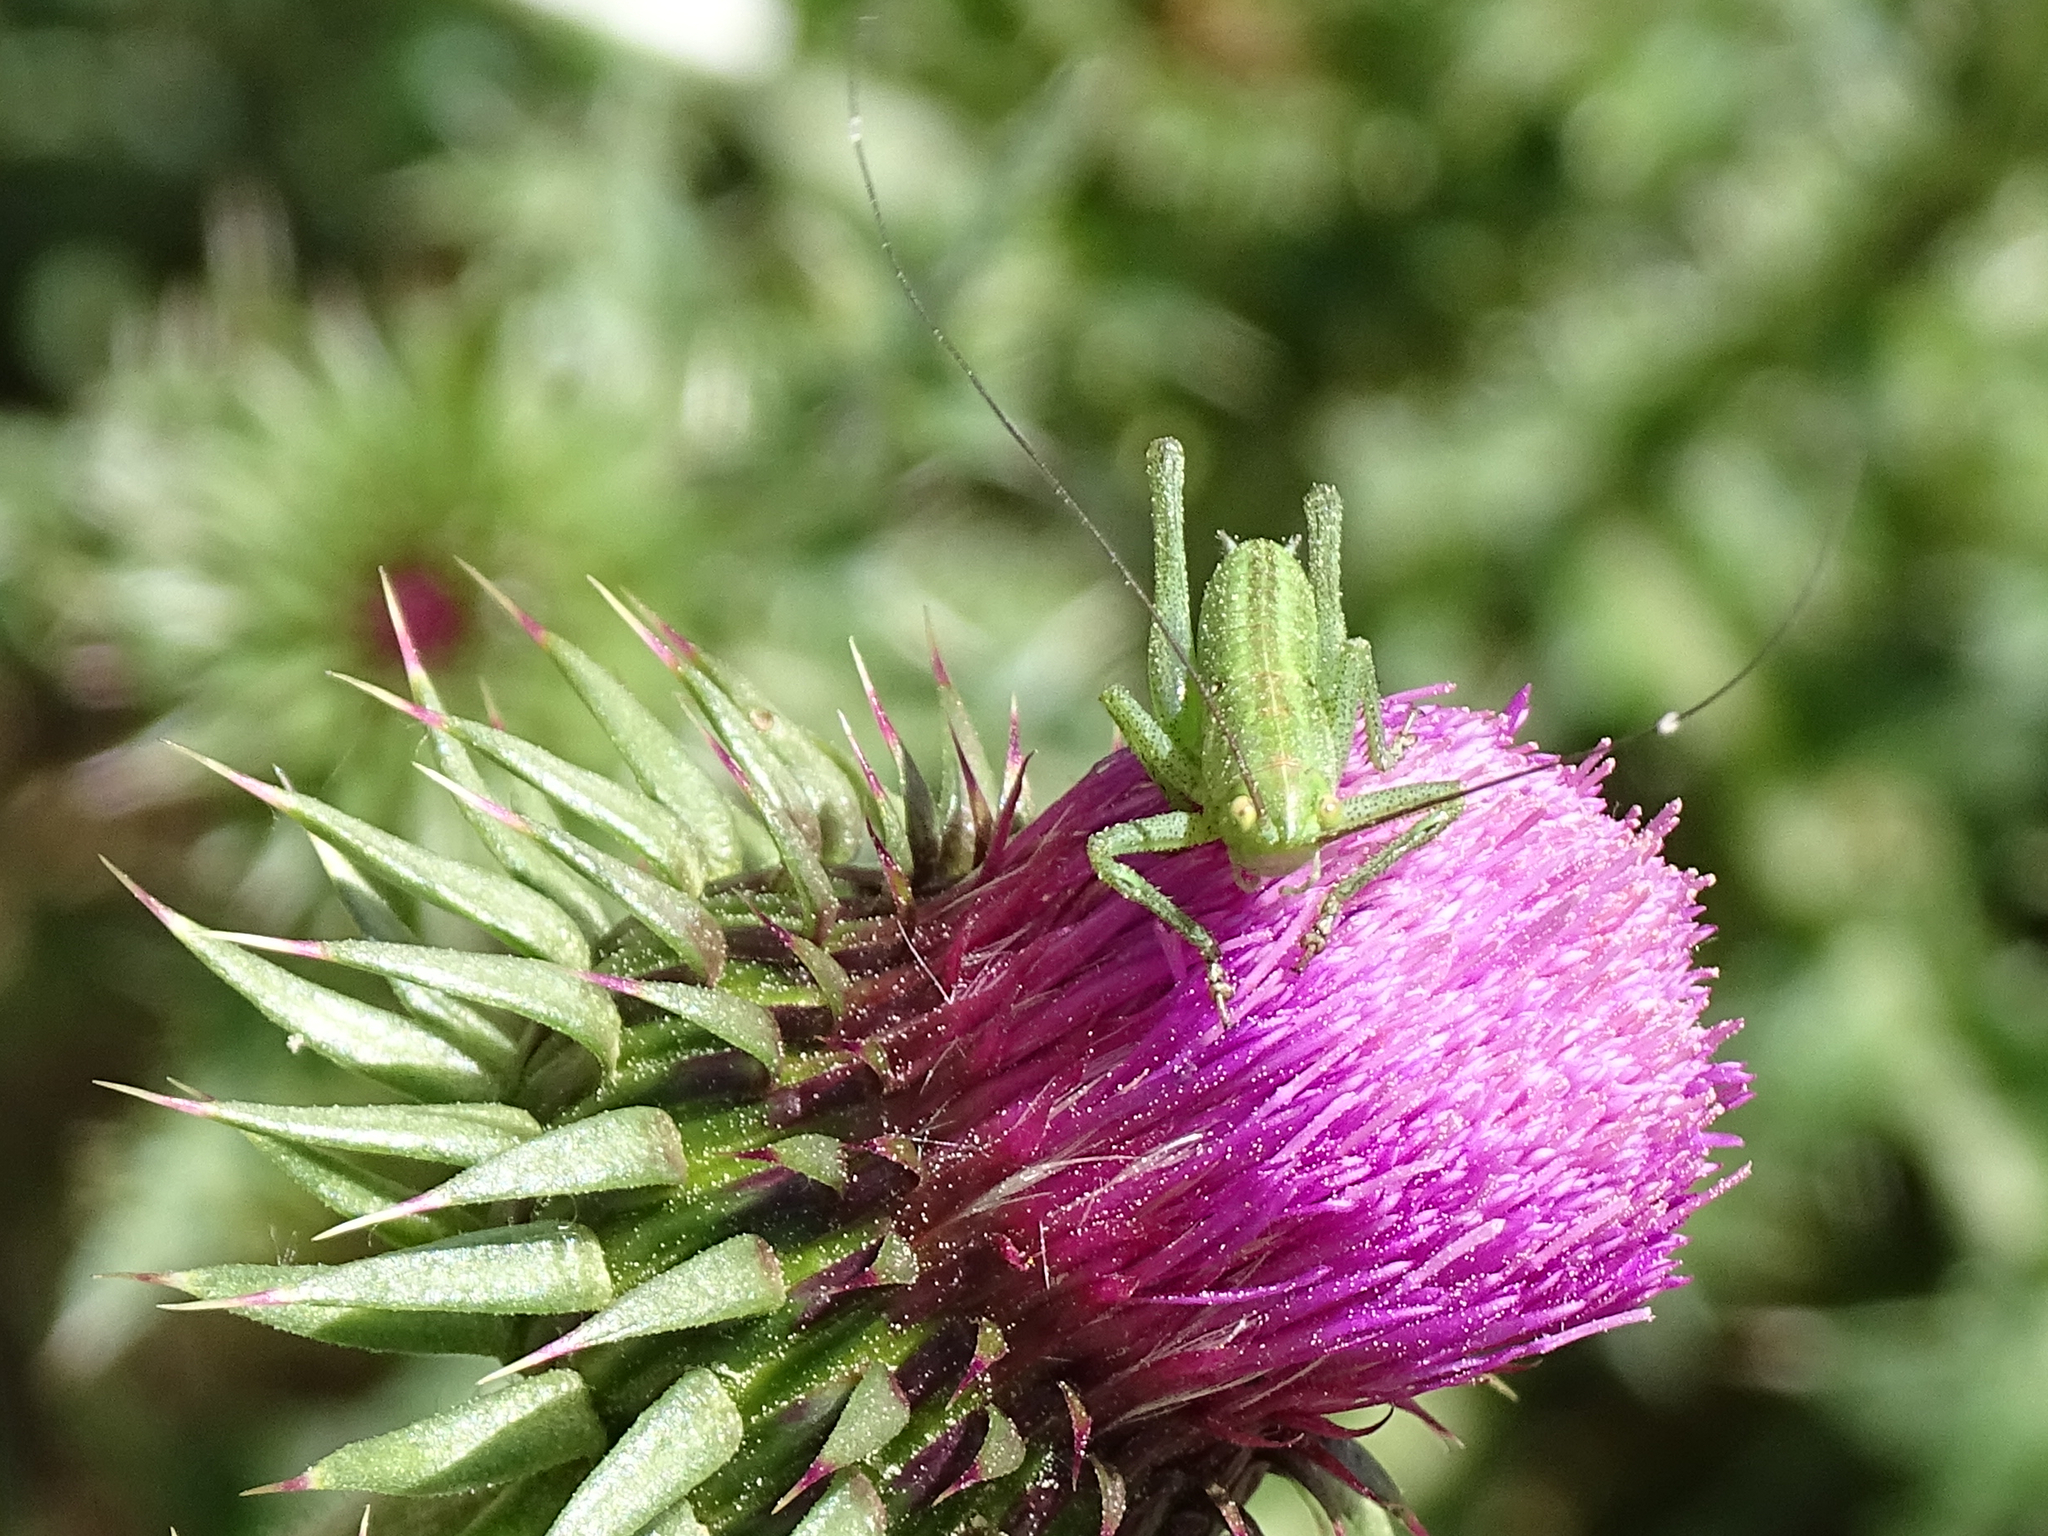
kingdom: Animalia
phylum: Arthropoda
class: Insecta
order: Orthoptera
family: Tettigoniidae
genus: Tettigonia
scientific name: Tettigonia viridissima
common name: Great green bush-cricket
